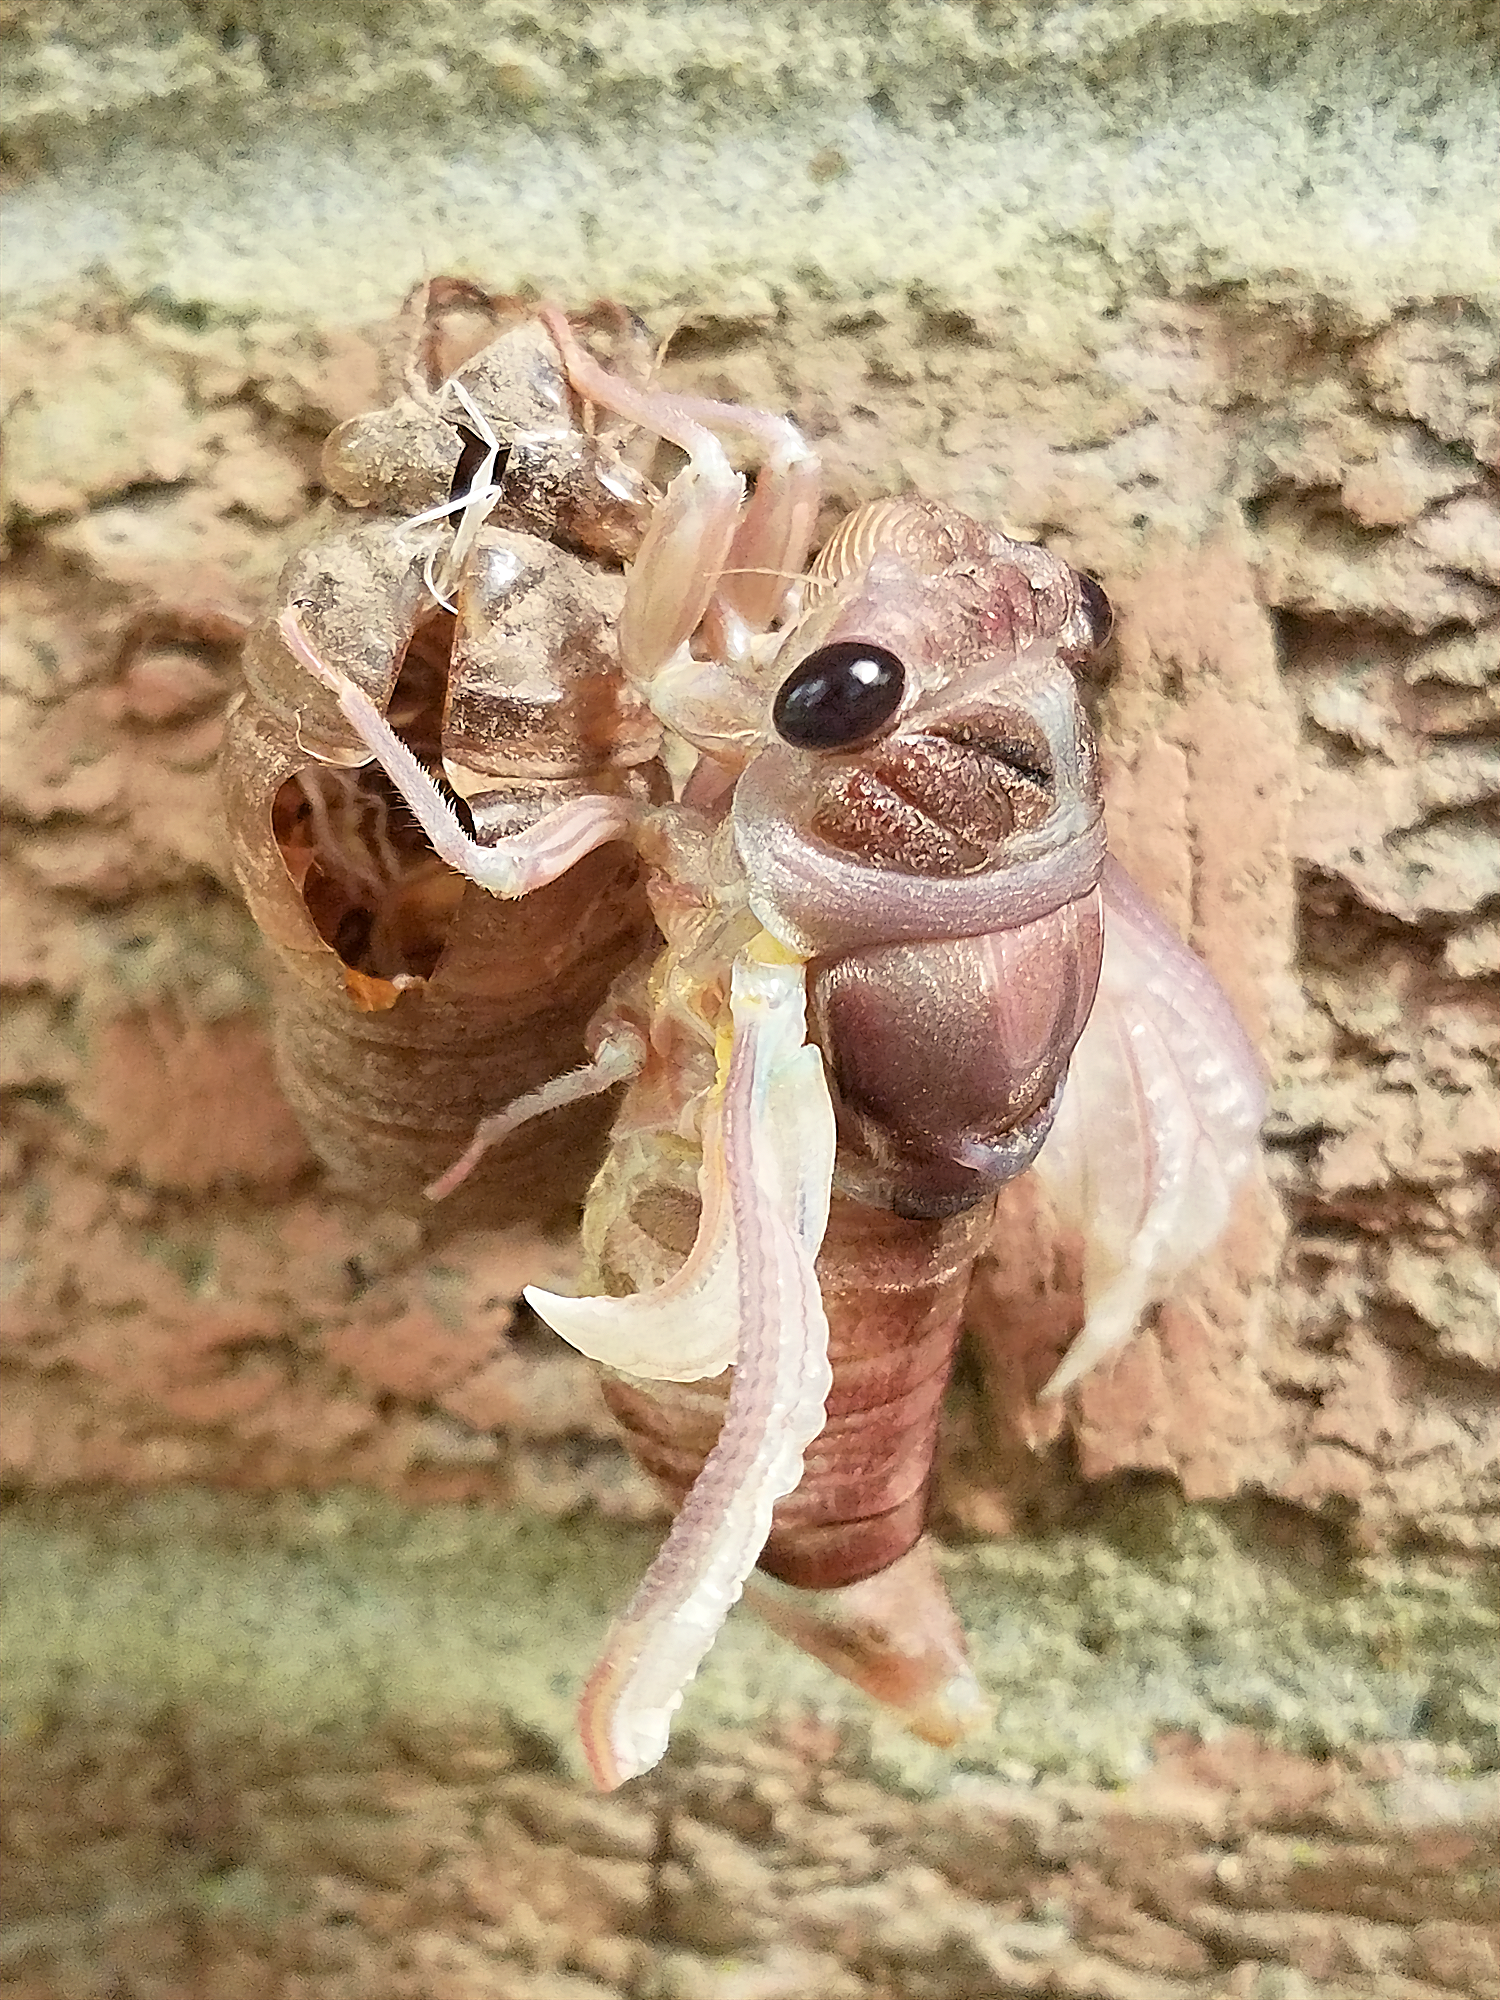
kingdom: Animalia
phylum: Arthropoda
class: Insecta
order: Hemiptera
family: Cicadidae
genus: Megatibicen
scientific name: Megatibicen figuratus
